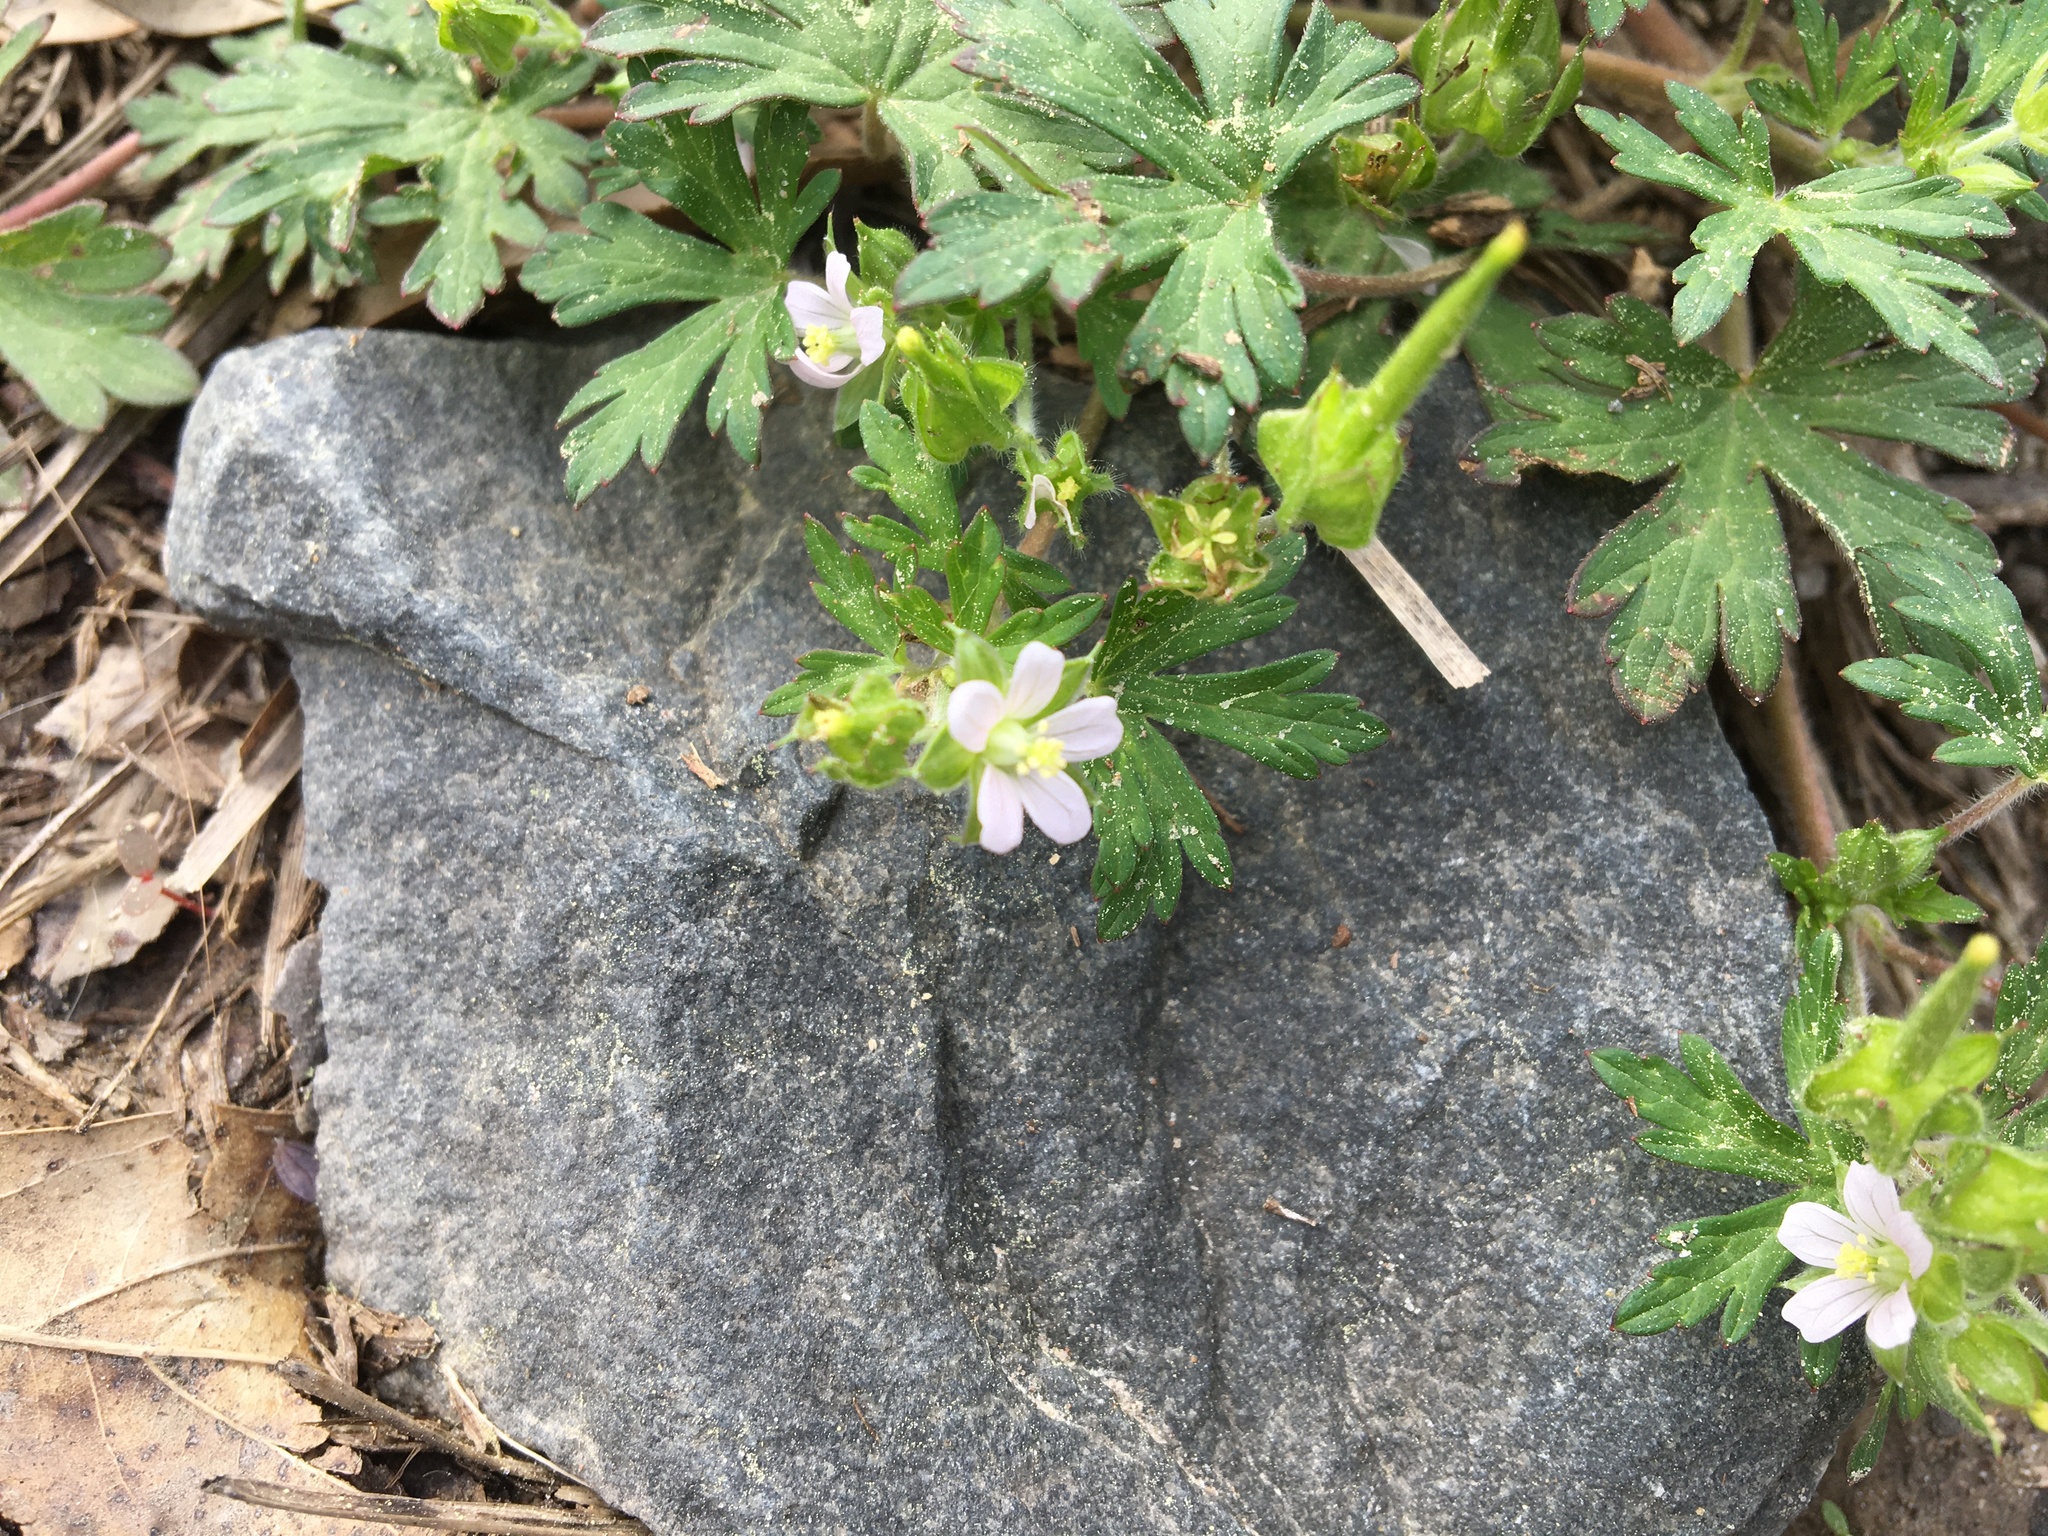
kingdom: Plantae
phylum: Tracheophyta
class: Magnoliopsida
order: Geraniales
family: Geraniaceae
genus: Geranium
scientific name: Geranium carolinianum
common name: Carolina crane's-bill
